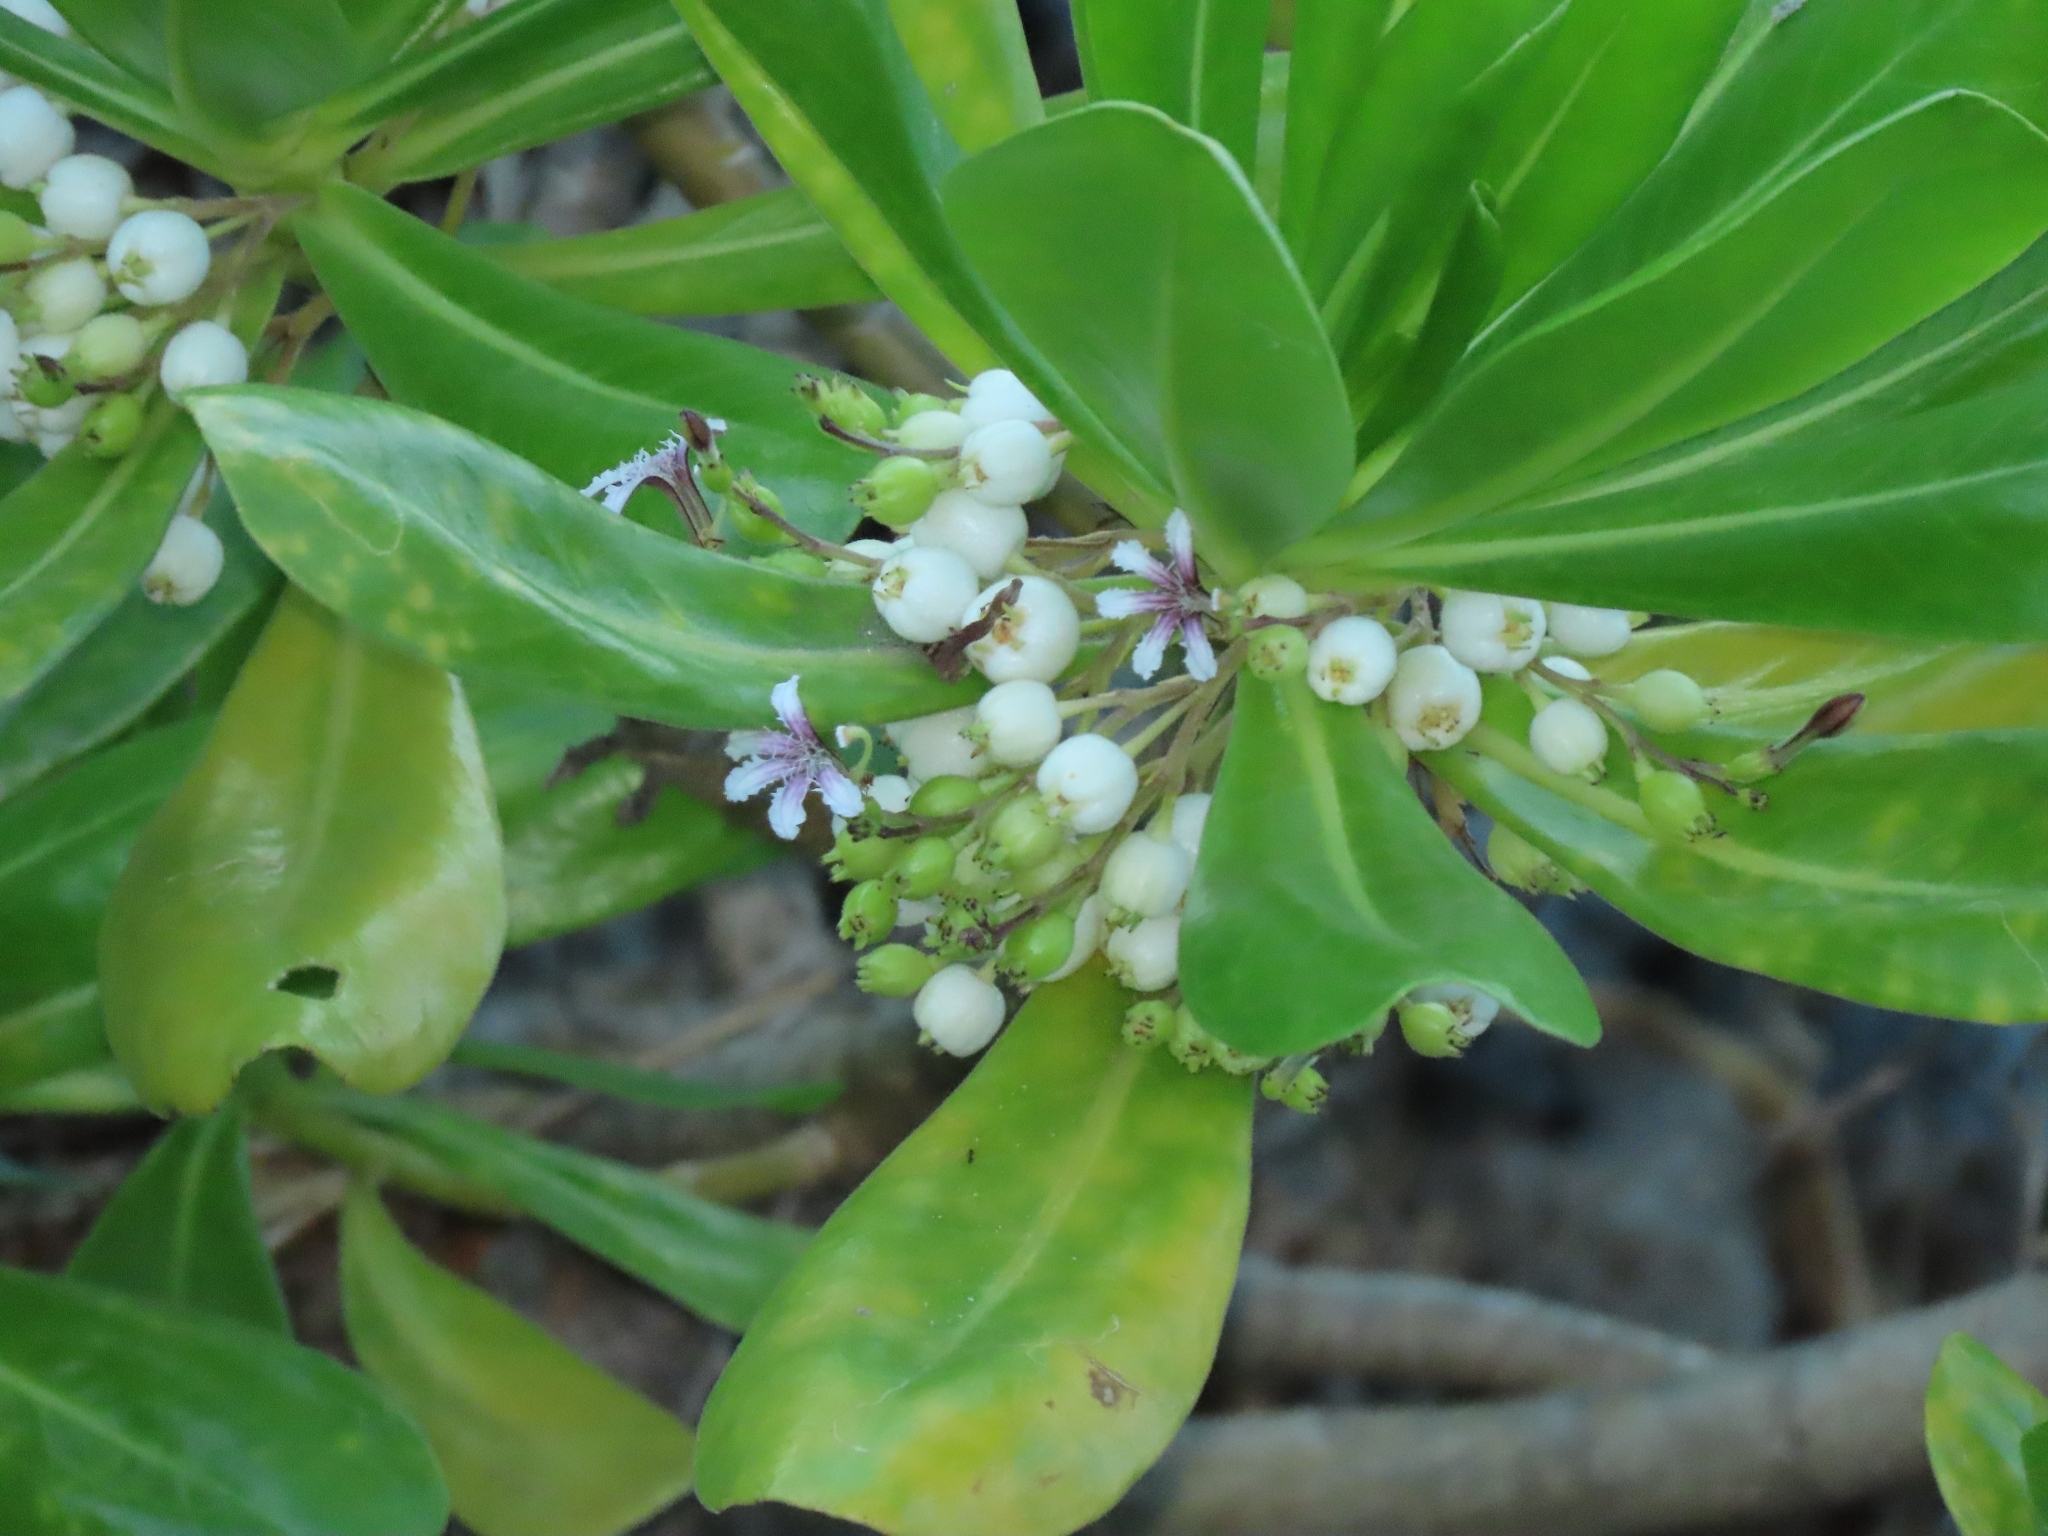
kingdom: Plantae
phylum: Tracheophyta
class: Magnoliopsida
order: Asterales
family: Goodeniaceae
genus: Scaevola
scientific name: Scaevola taccada
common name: Sea lettucetree
